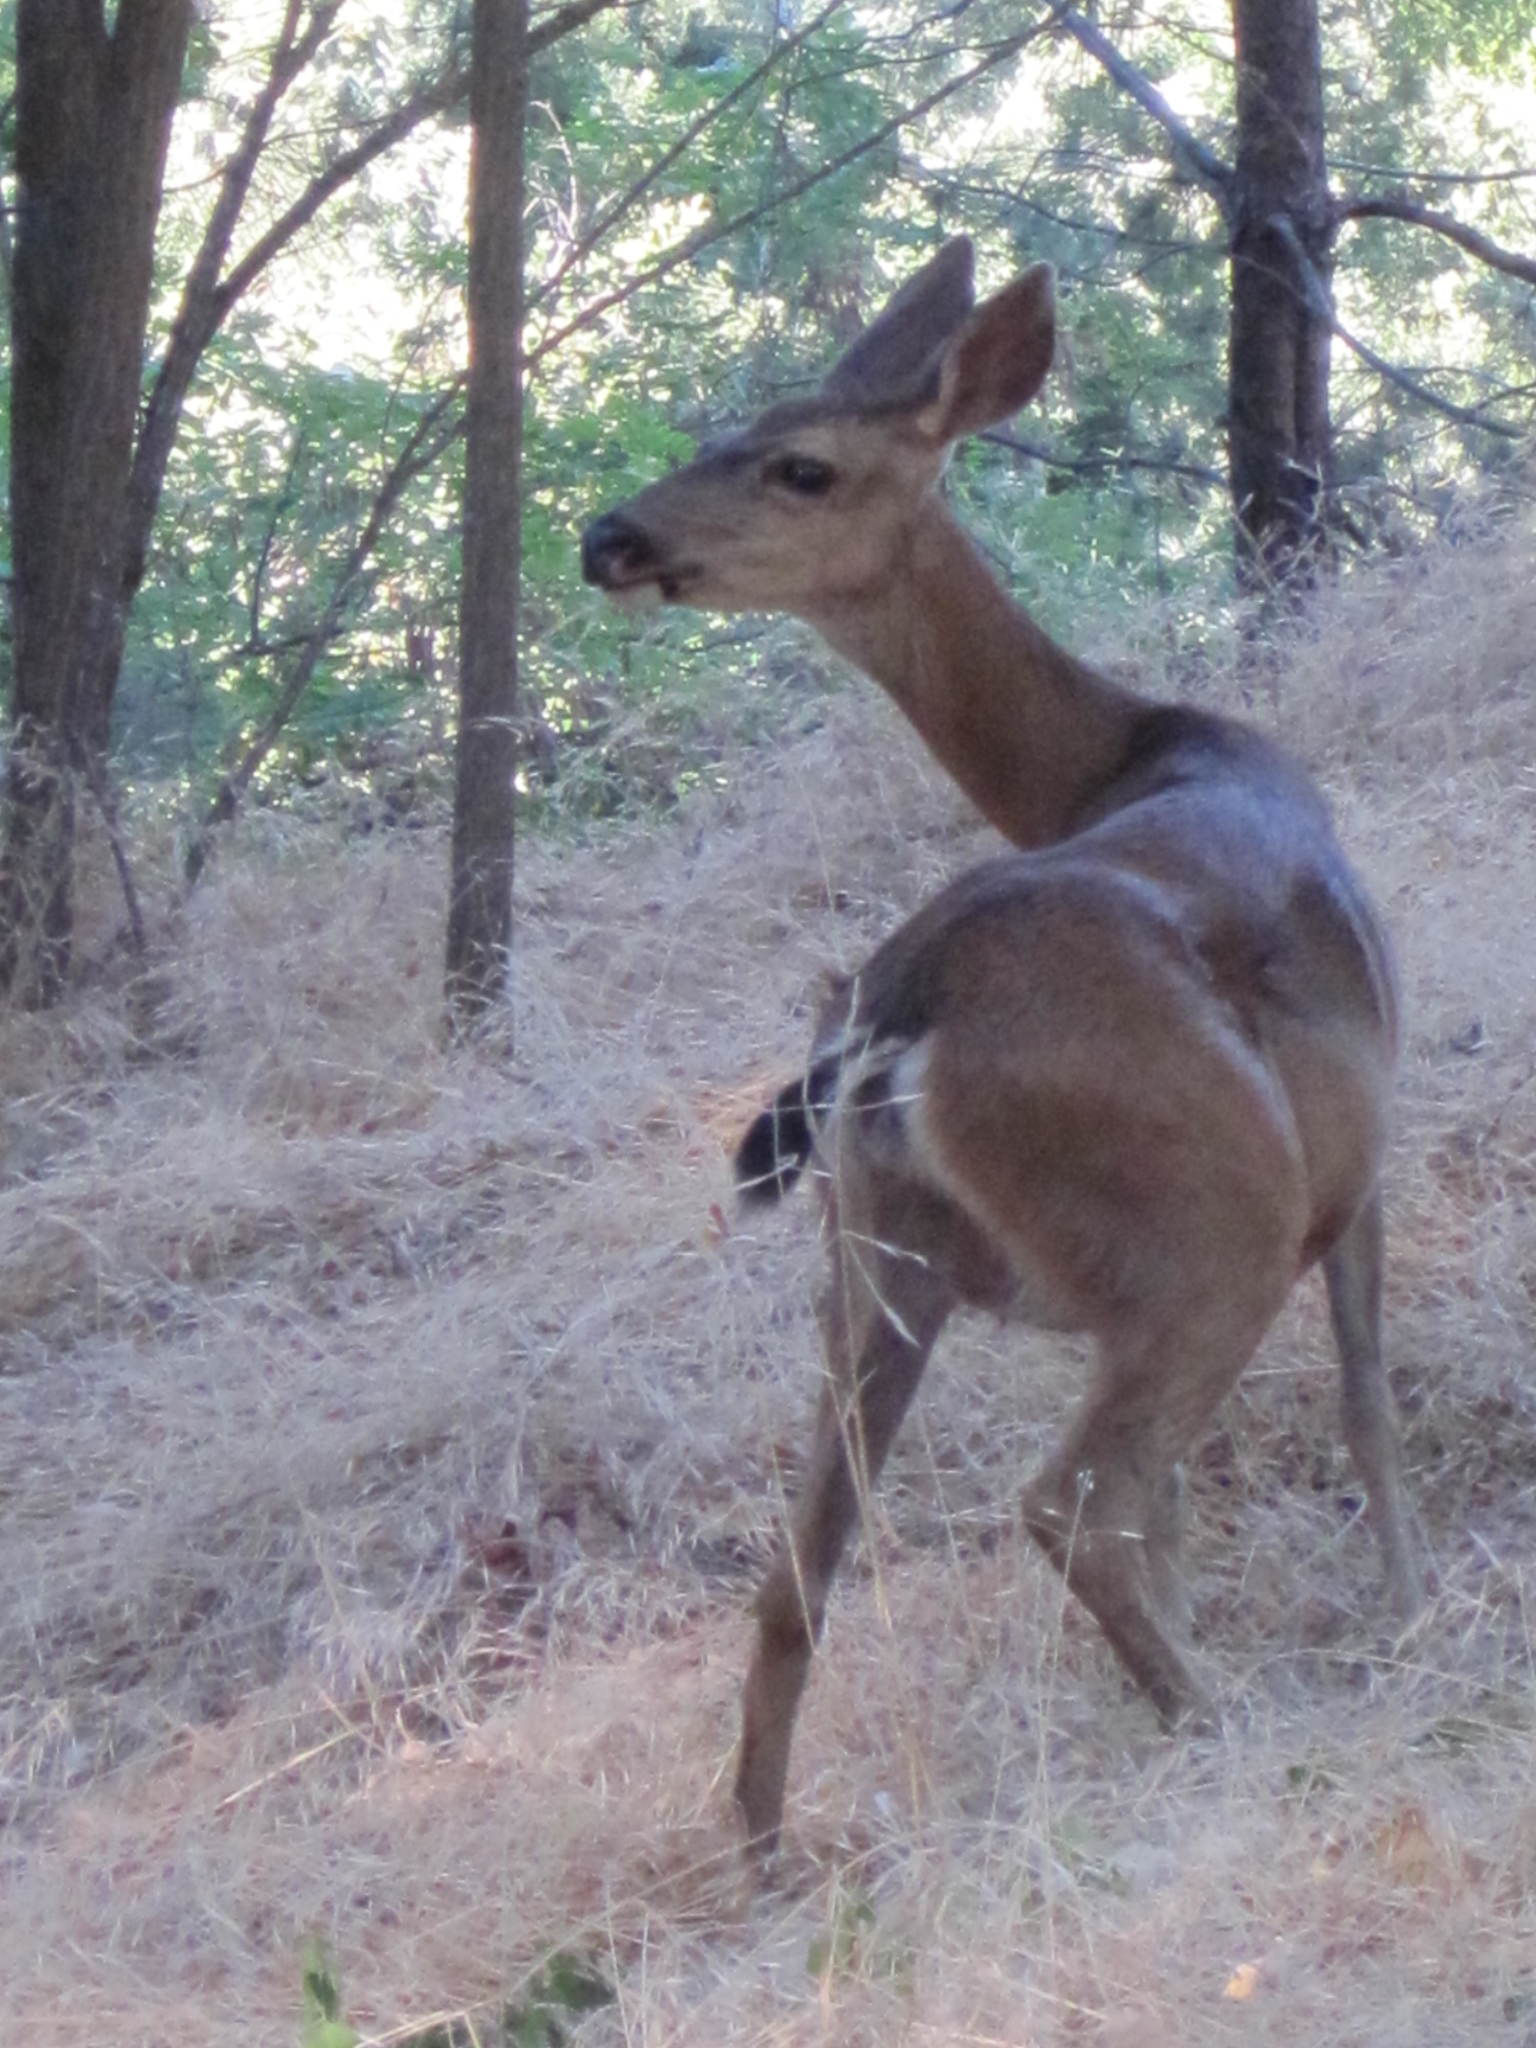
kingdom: Animalia
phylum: Chordata
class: Mammalia
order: Artiodactyla
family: Cervidae
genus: Odocoileus
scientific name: Odocoileus hemionus
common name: Mule deer
